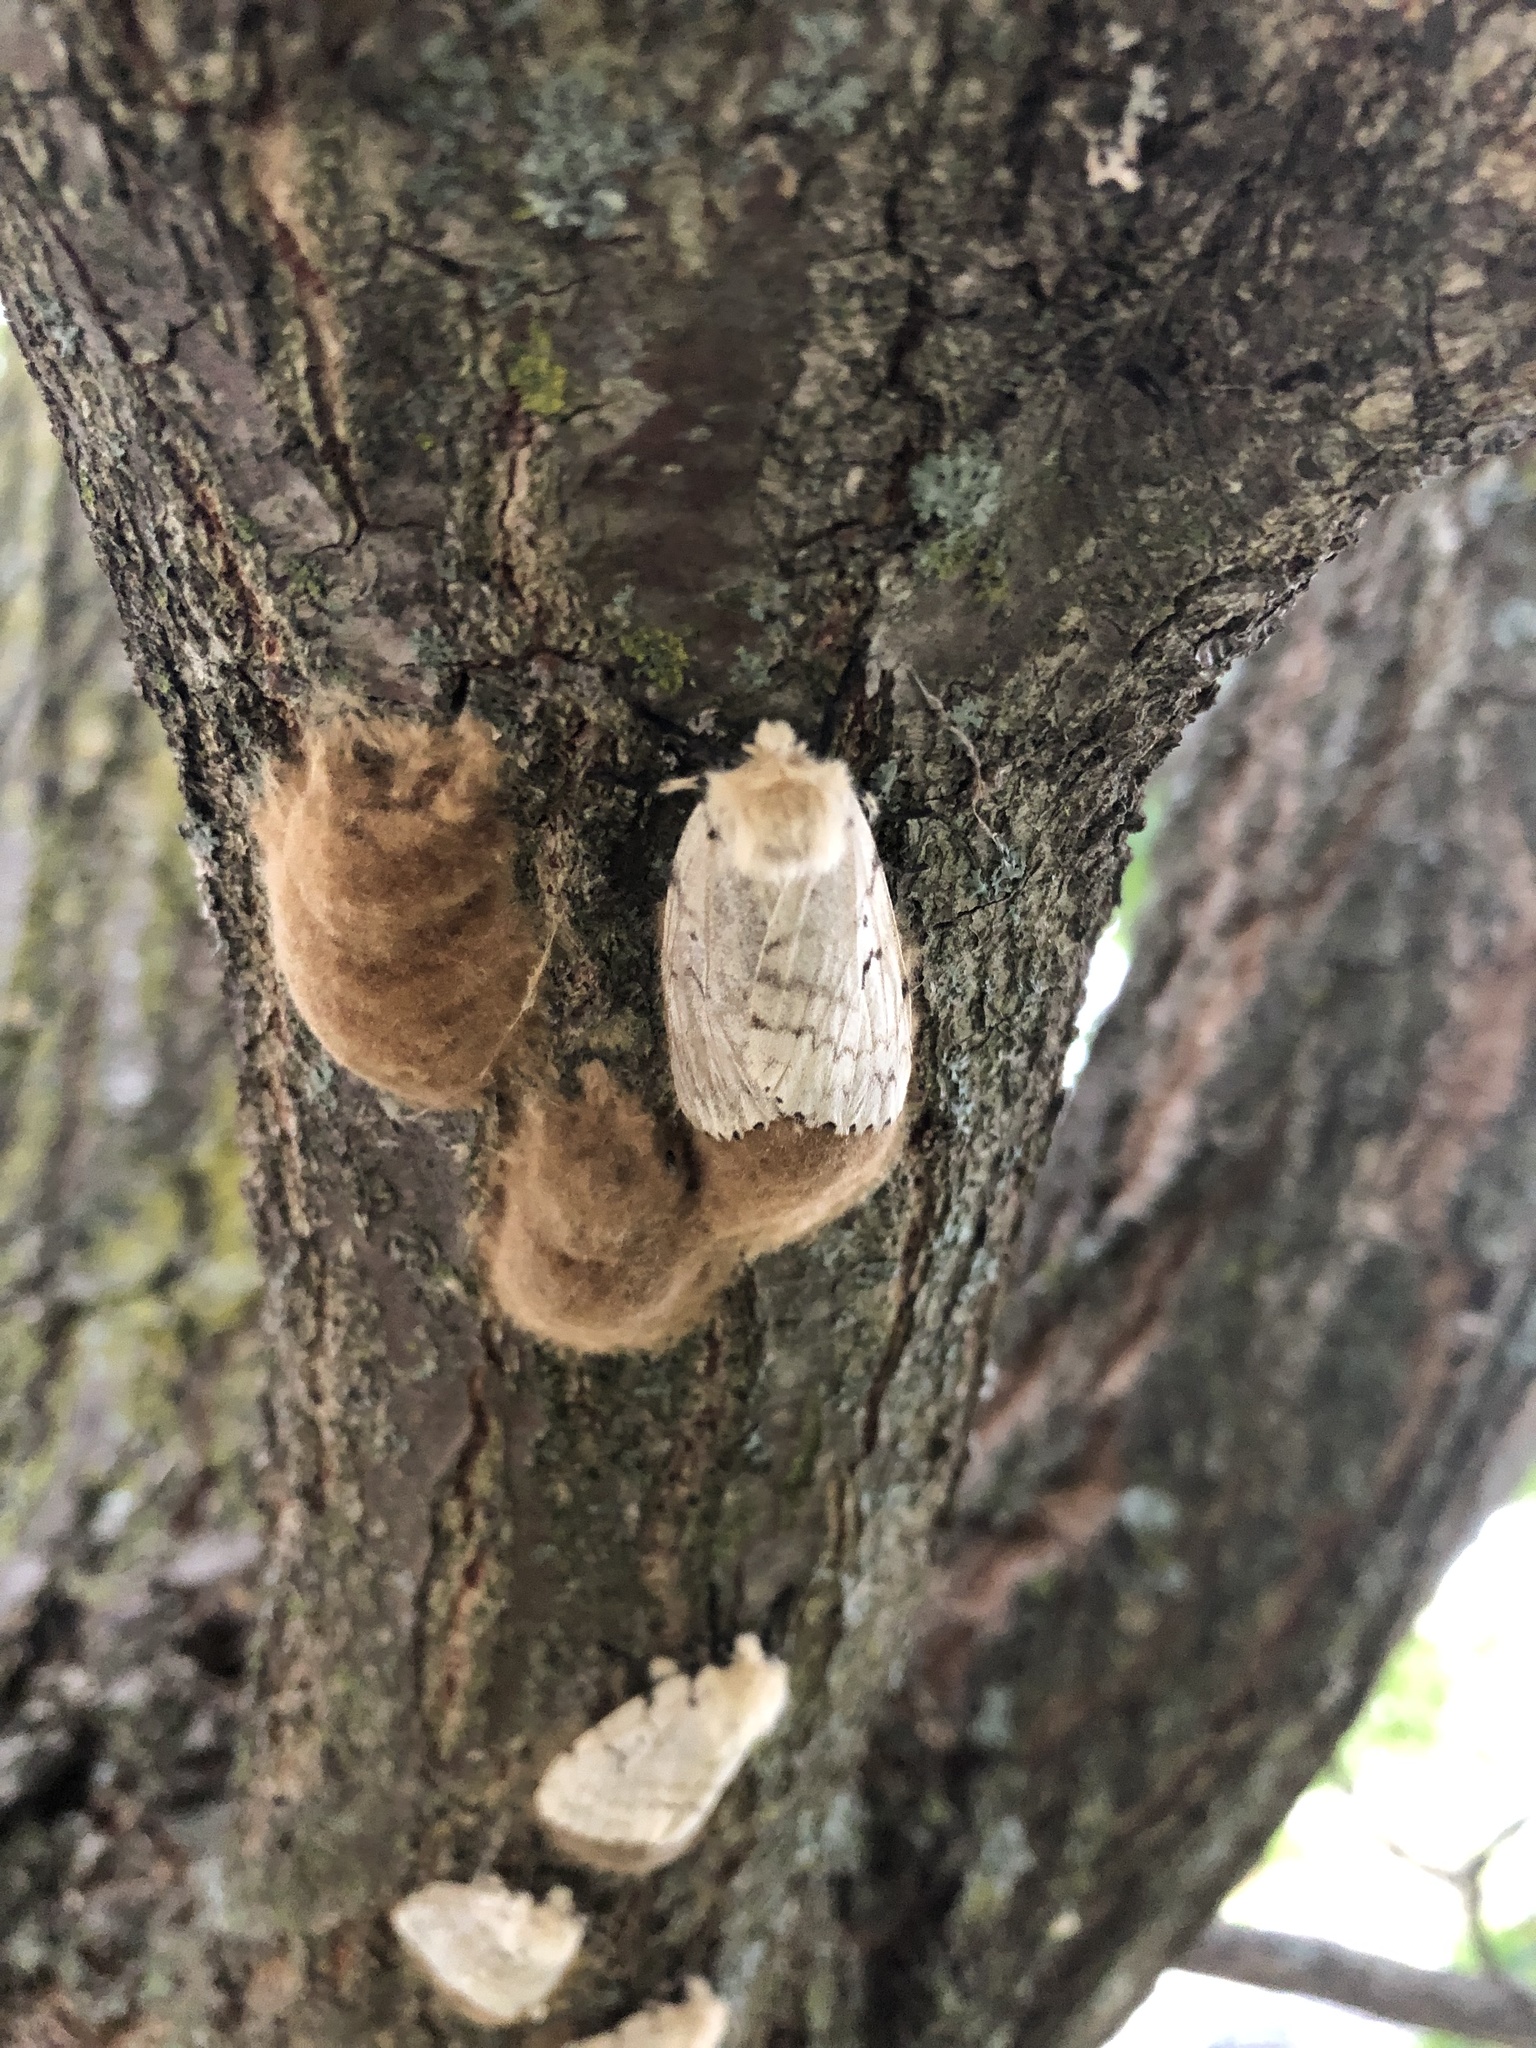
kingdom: Animalia
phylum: Arthropoda
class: Insecta
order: Lepidoptera
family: Erebidae
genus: Lymantria
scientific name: Lymantria dispar
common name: Gypsy moth
